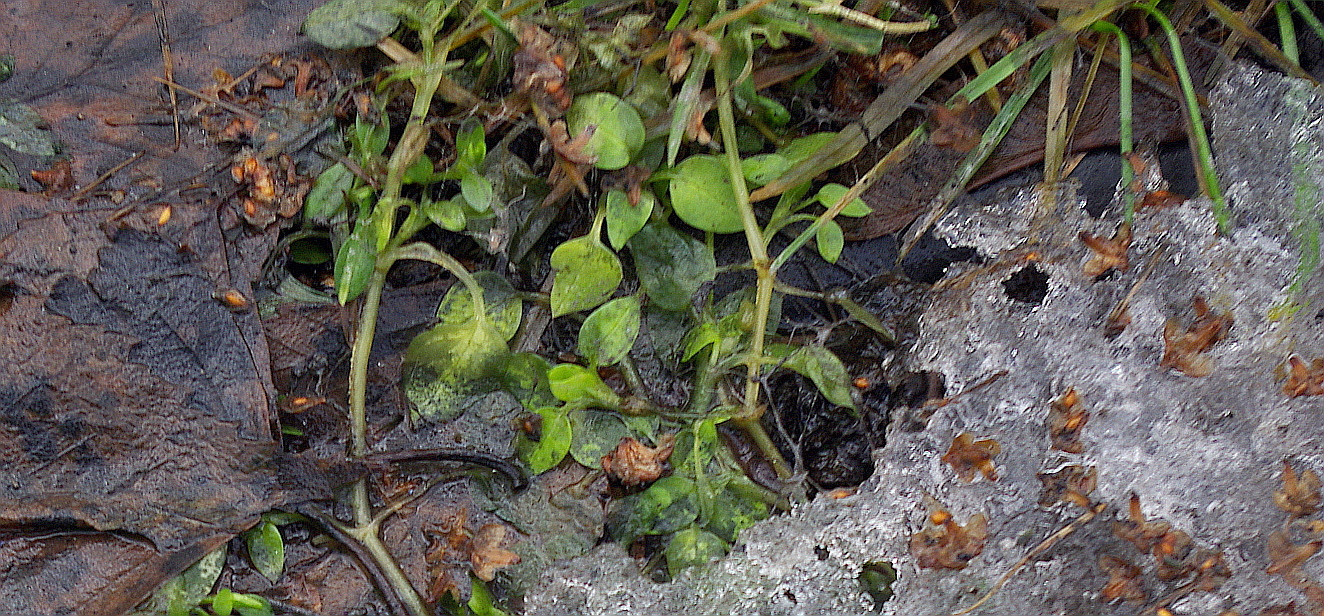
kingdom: Plantae
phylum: Tracheophyta
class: Magnoliopsida
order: Caryophyllales
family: Caryophyllaceae
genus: Stellaria
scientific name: Stellaria media
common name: Common chickweed
